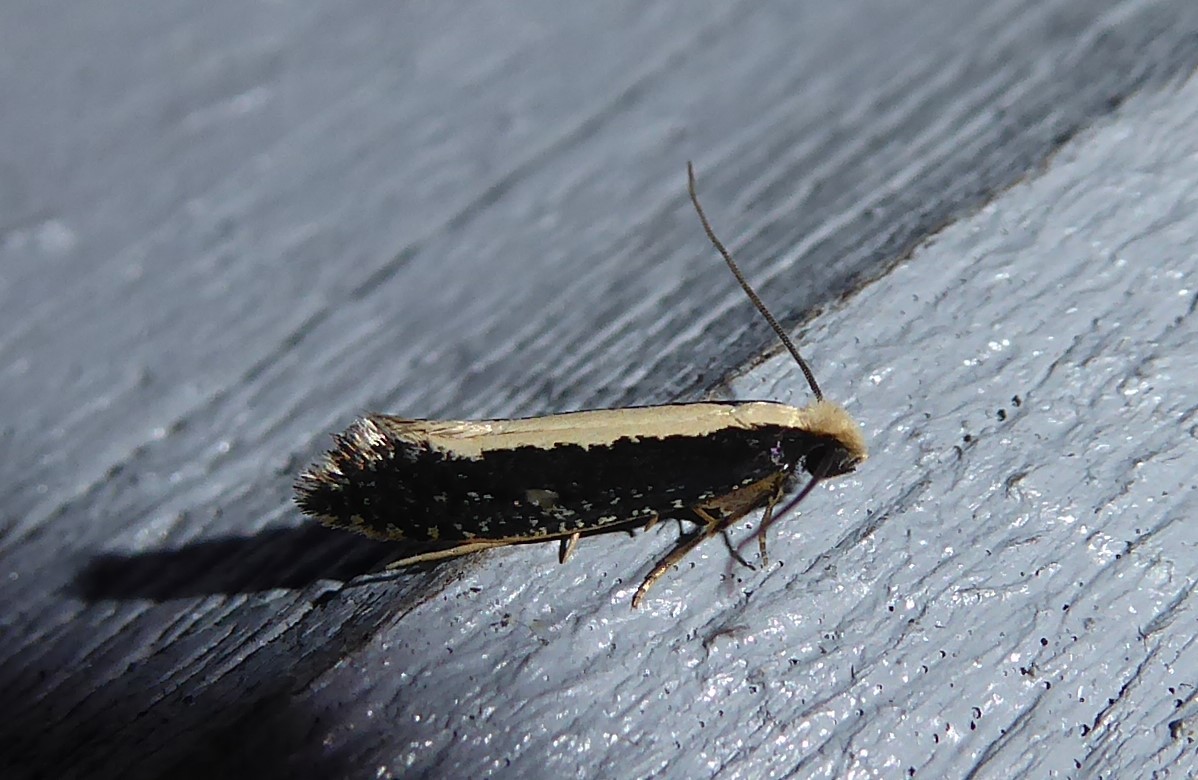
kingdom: Animalia
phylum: Arthropoda
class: Insecta
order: Lepidoptera
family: Tineidae
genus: Monopis
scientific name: Monopis ethelella
